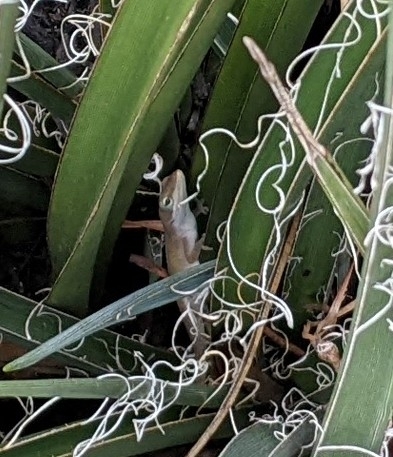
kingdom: Animalia
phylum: Chordata
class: Squamata
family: Dactyloidae
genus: Anolis
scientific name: Anolis carolinensis
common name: Green anole
